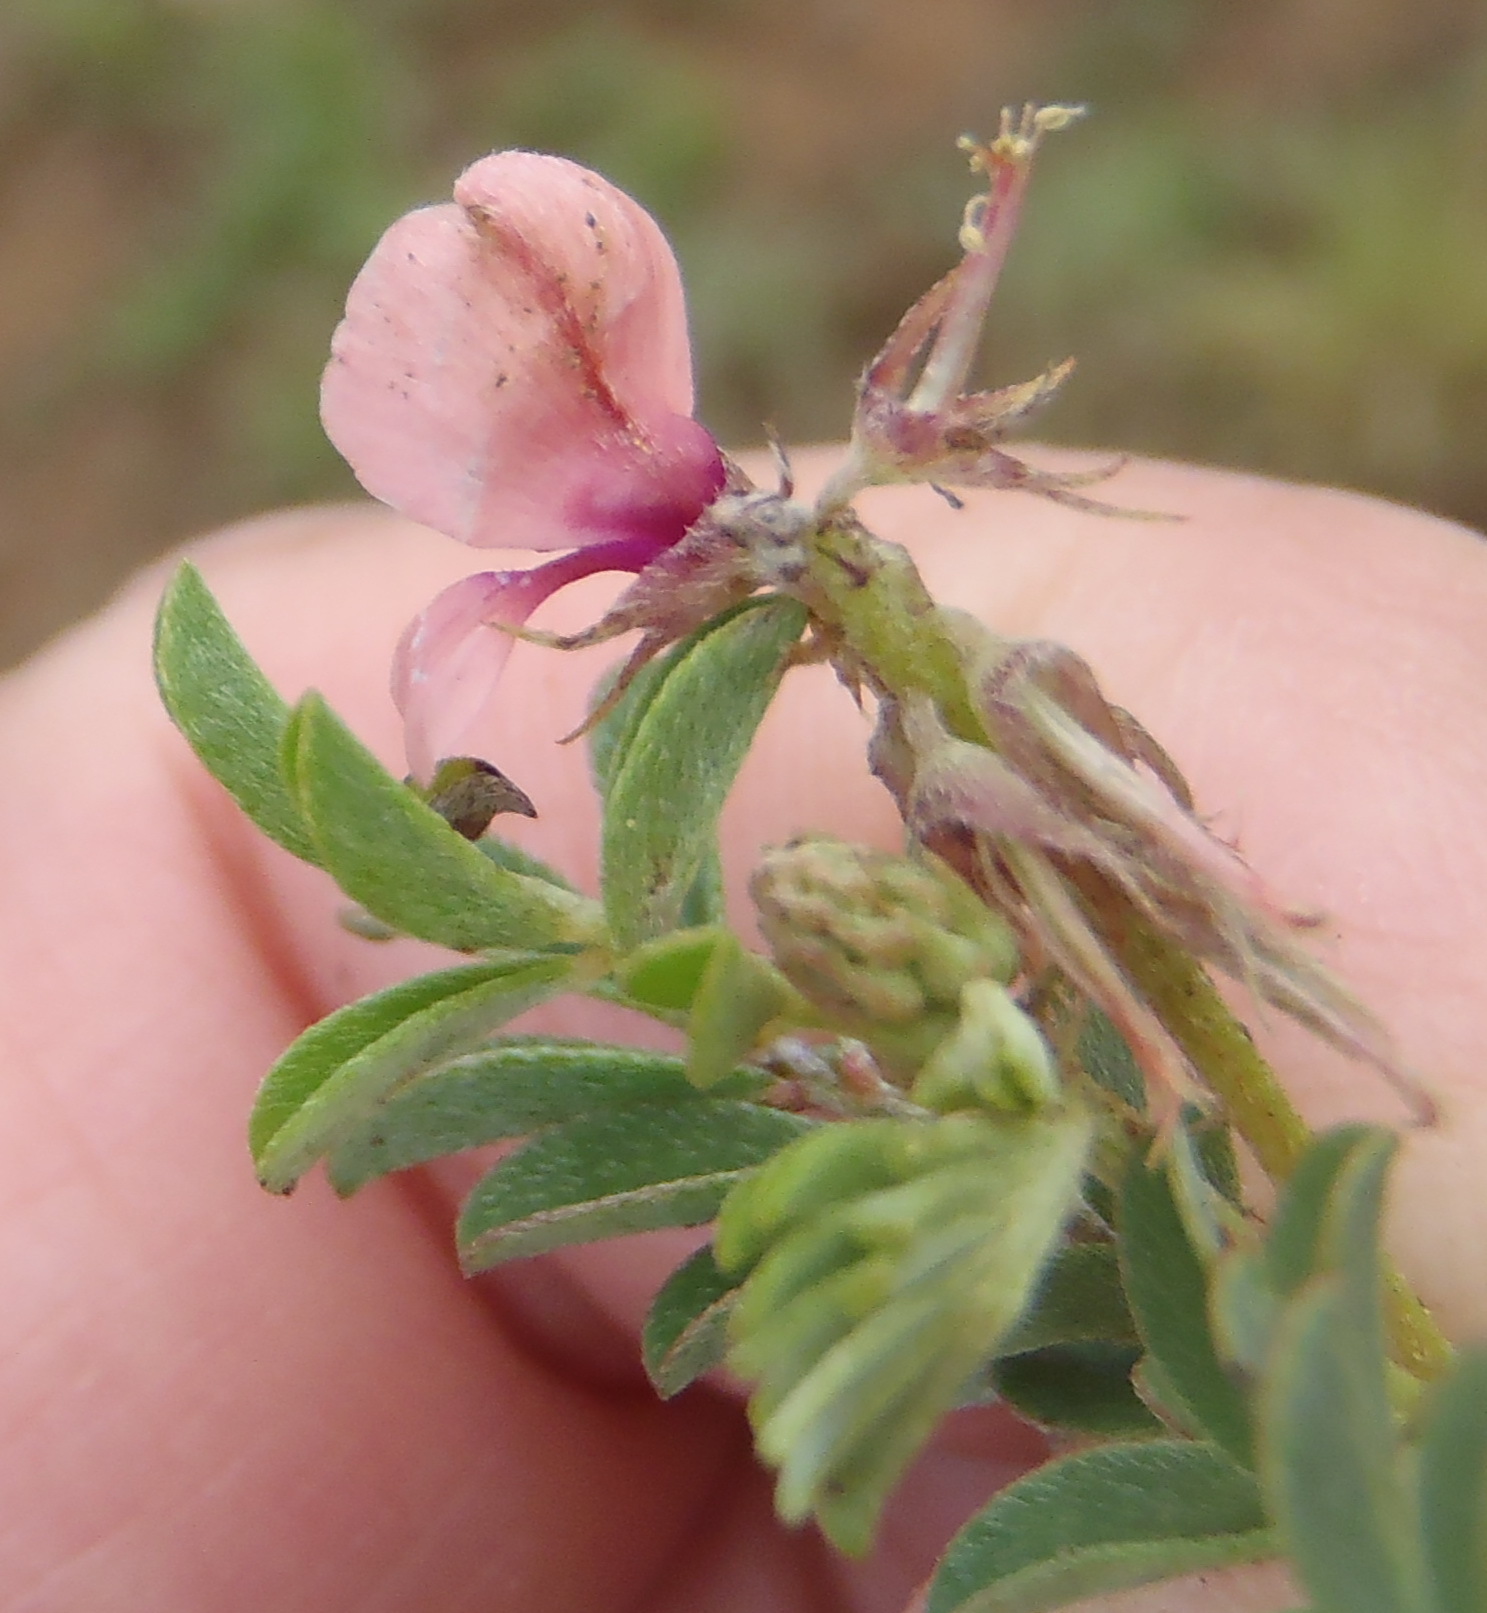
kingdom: Plantae
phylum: Tracheophyta
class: Magnoliopsida
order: Fabales
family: Fabaceae
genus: Indigofera
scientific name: Indigofera alternans
